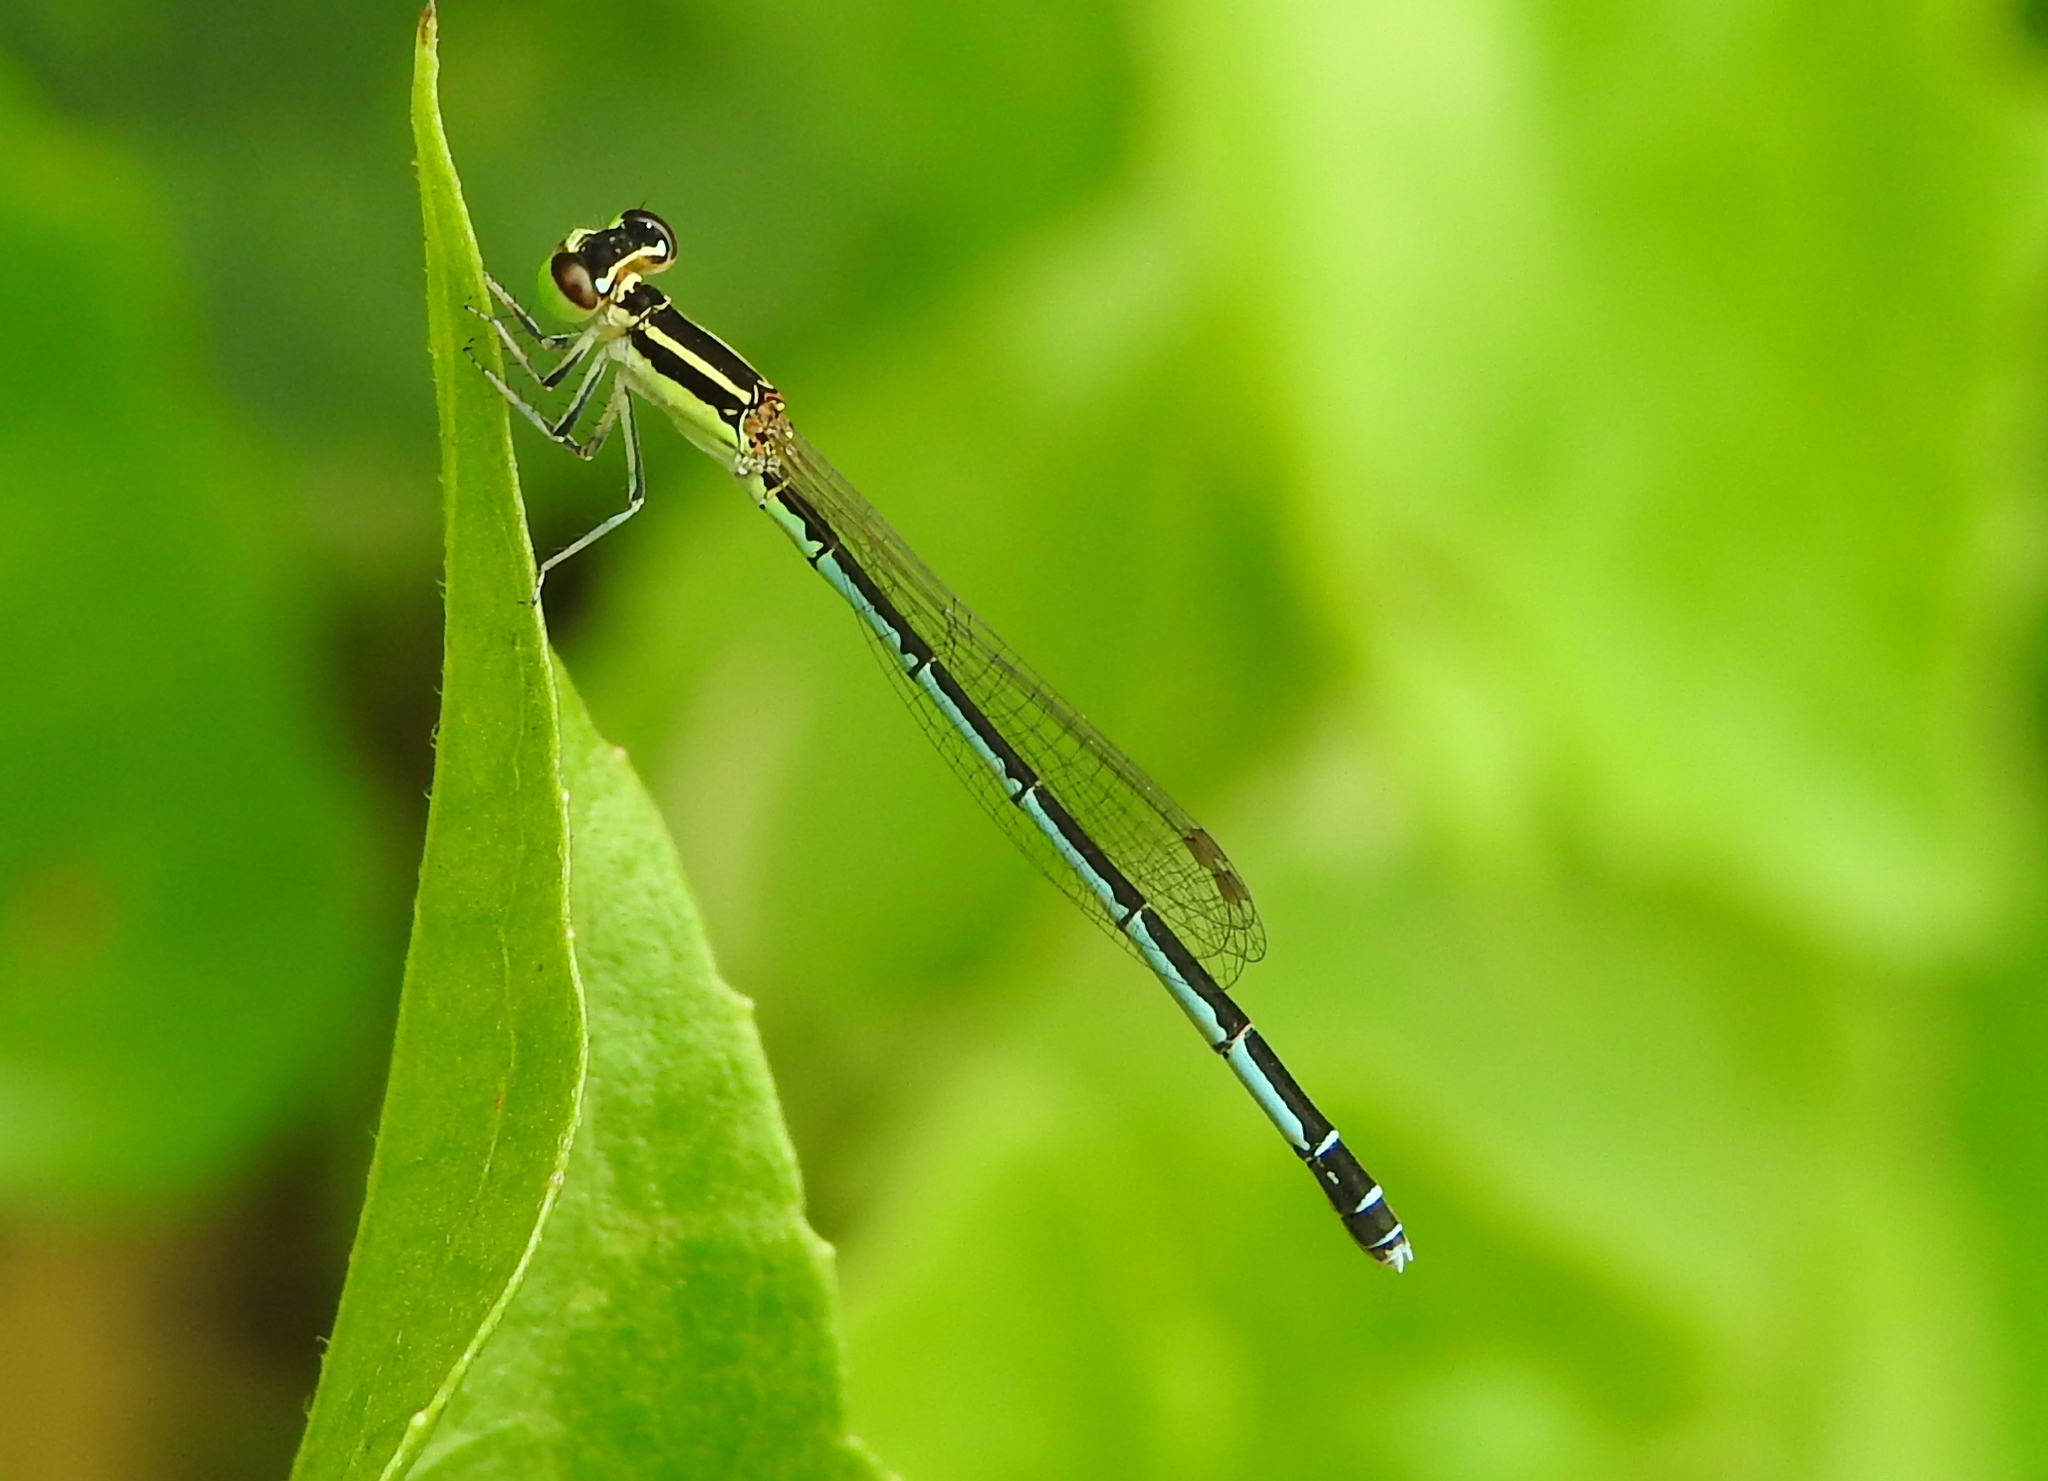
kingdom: Animalia
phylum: Arthropoda
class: Insecta
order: Odonata
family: Coenagrionidae
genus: Agriocnemis
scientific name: Agriocnemis nana
